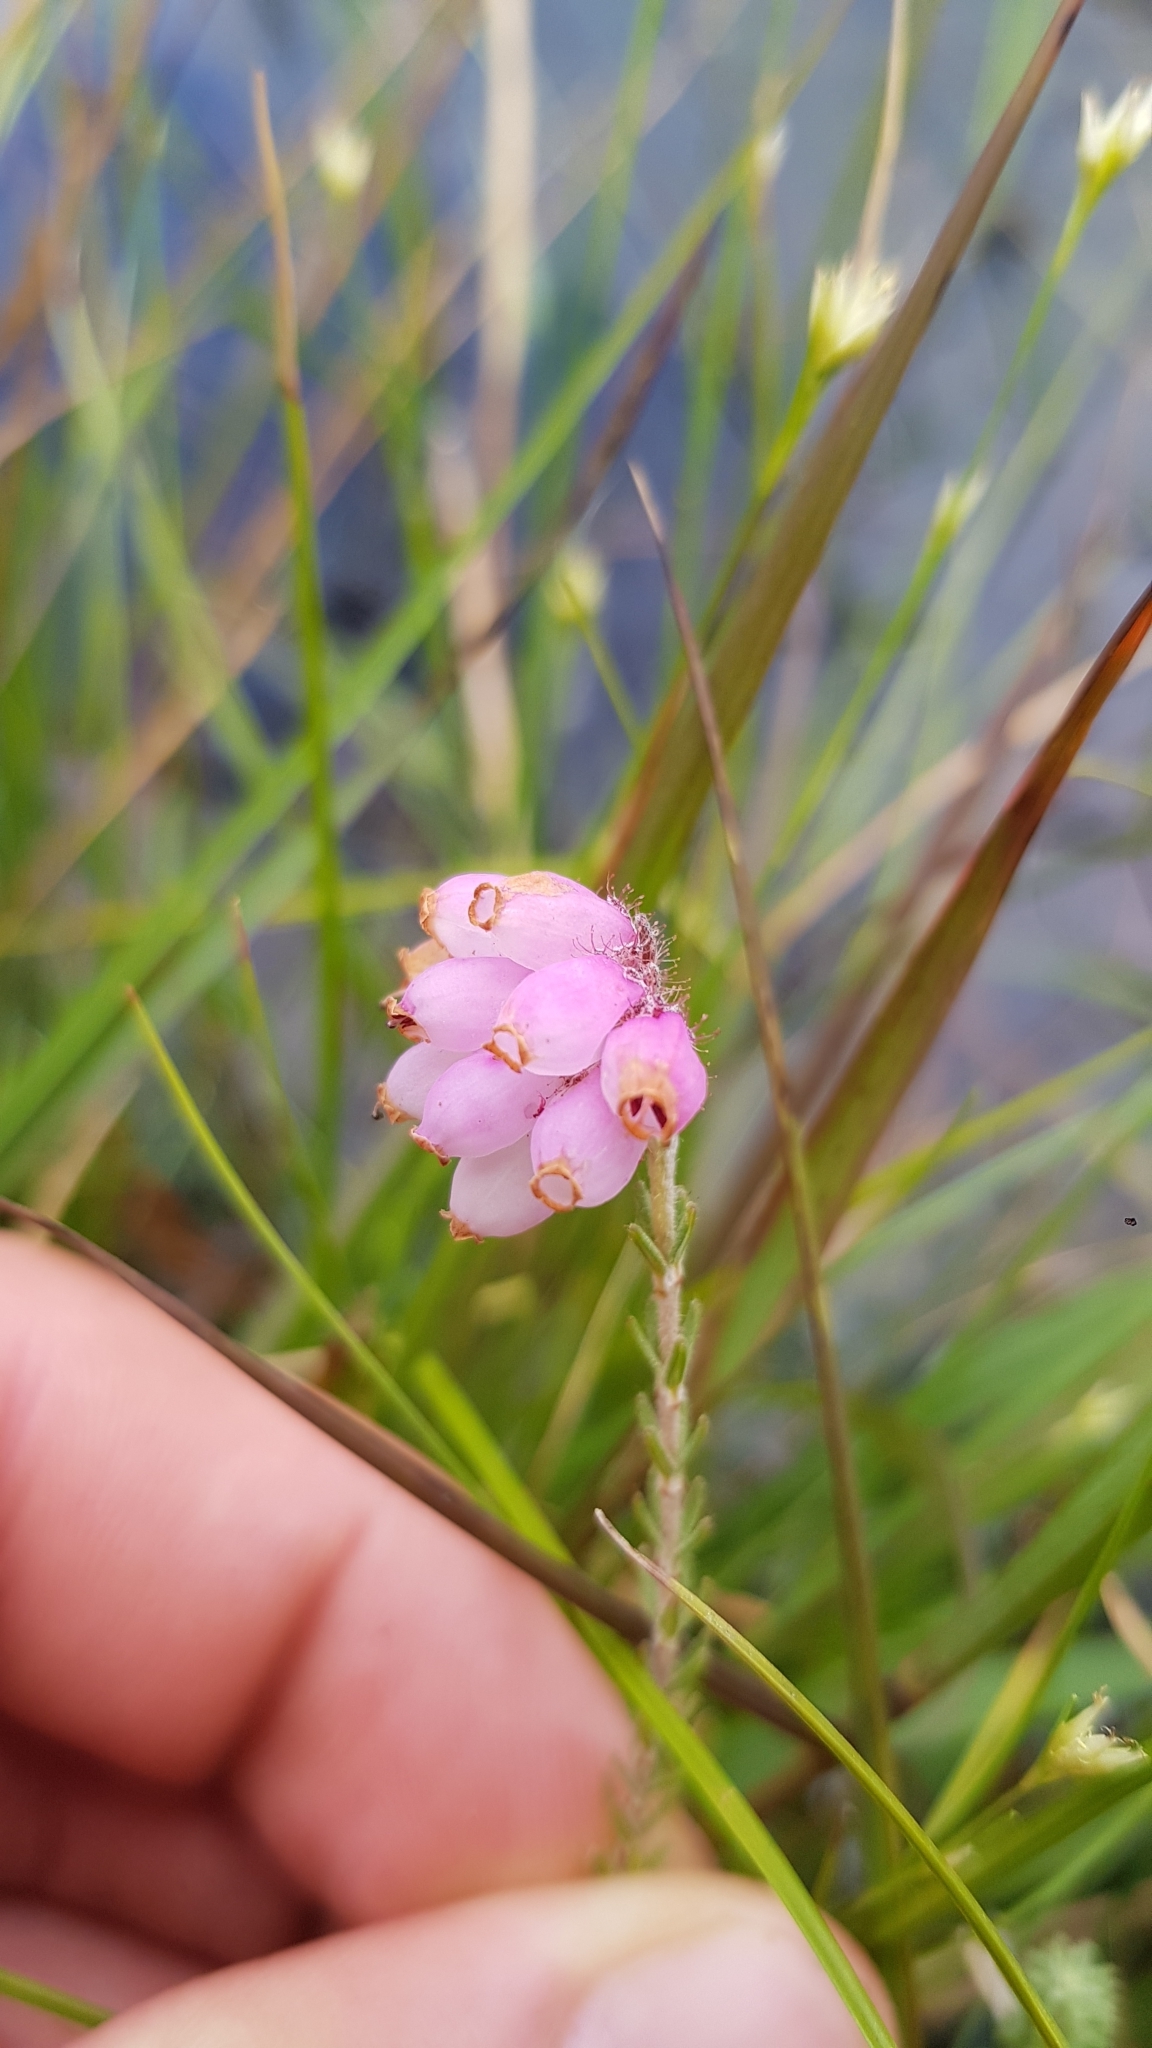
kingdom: Plantae
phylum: Tracheophyta
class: Magnoliopsida
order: Ericales
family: Ericaceae
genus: Erica
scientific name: Erica tetralix
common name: Cross-leaved heath
